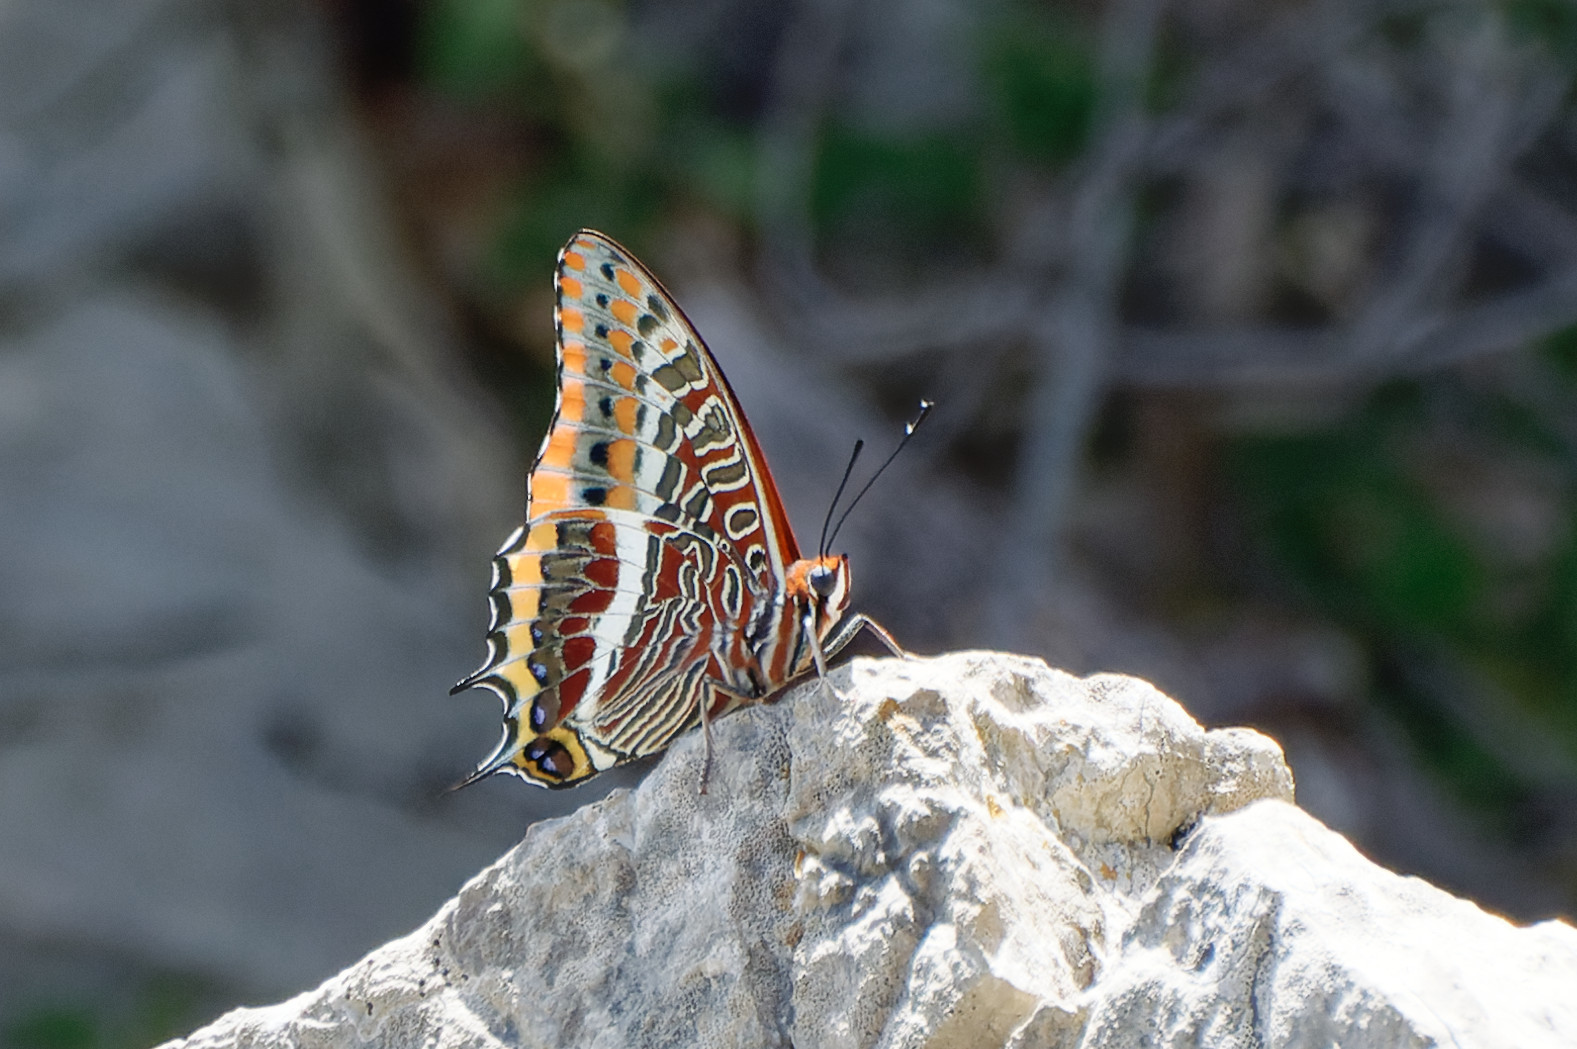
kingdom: Animalia
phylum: Arthropoda
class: Insecta
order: Lepidoptera
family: Nymphalidae
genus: Charaxes
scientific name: Charaxes jasius
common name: Two tailed pasha
